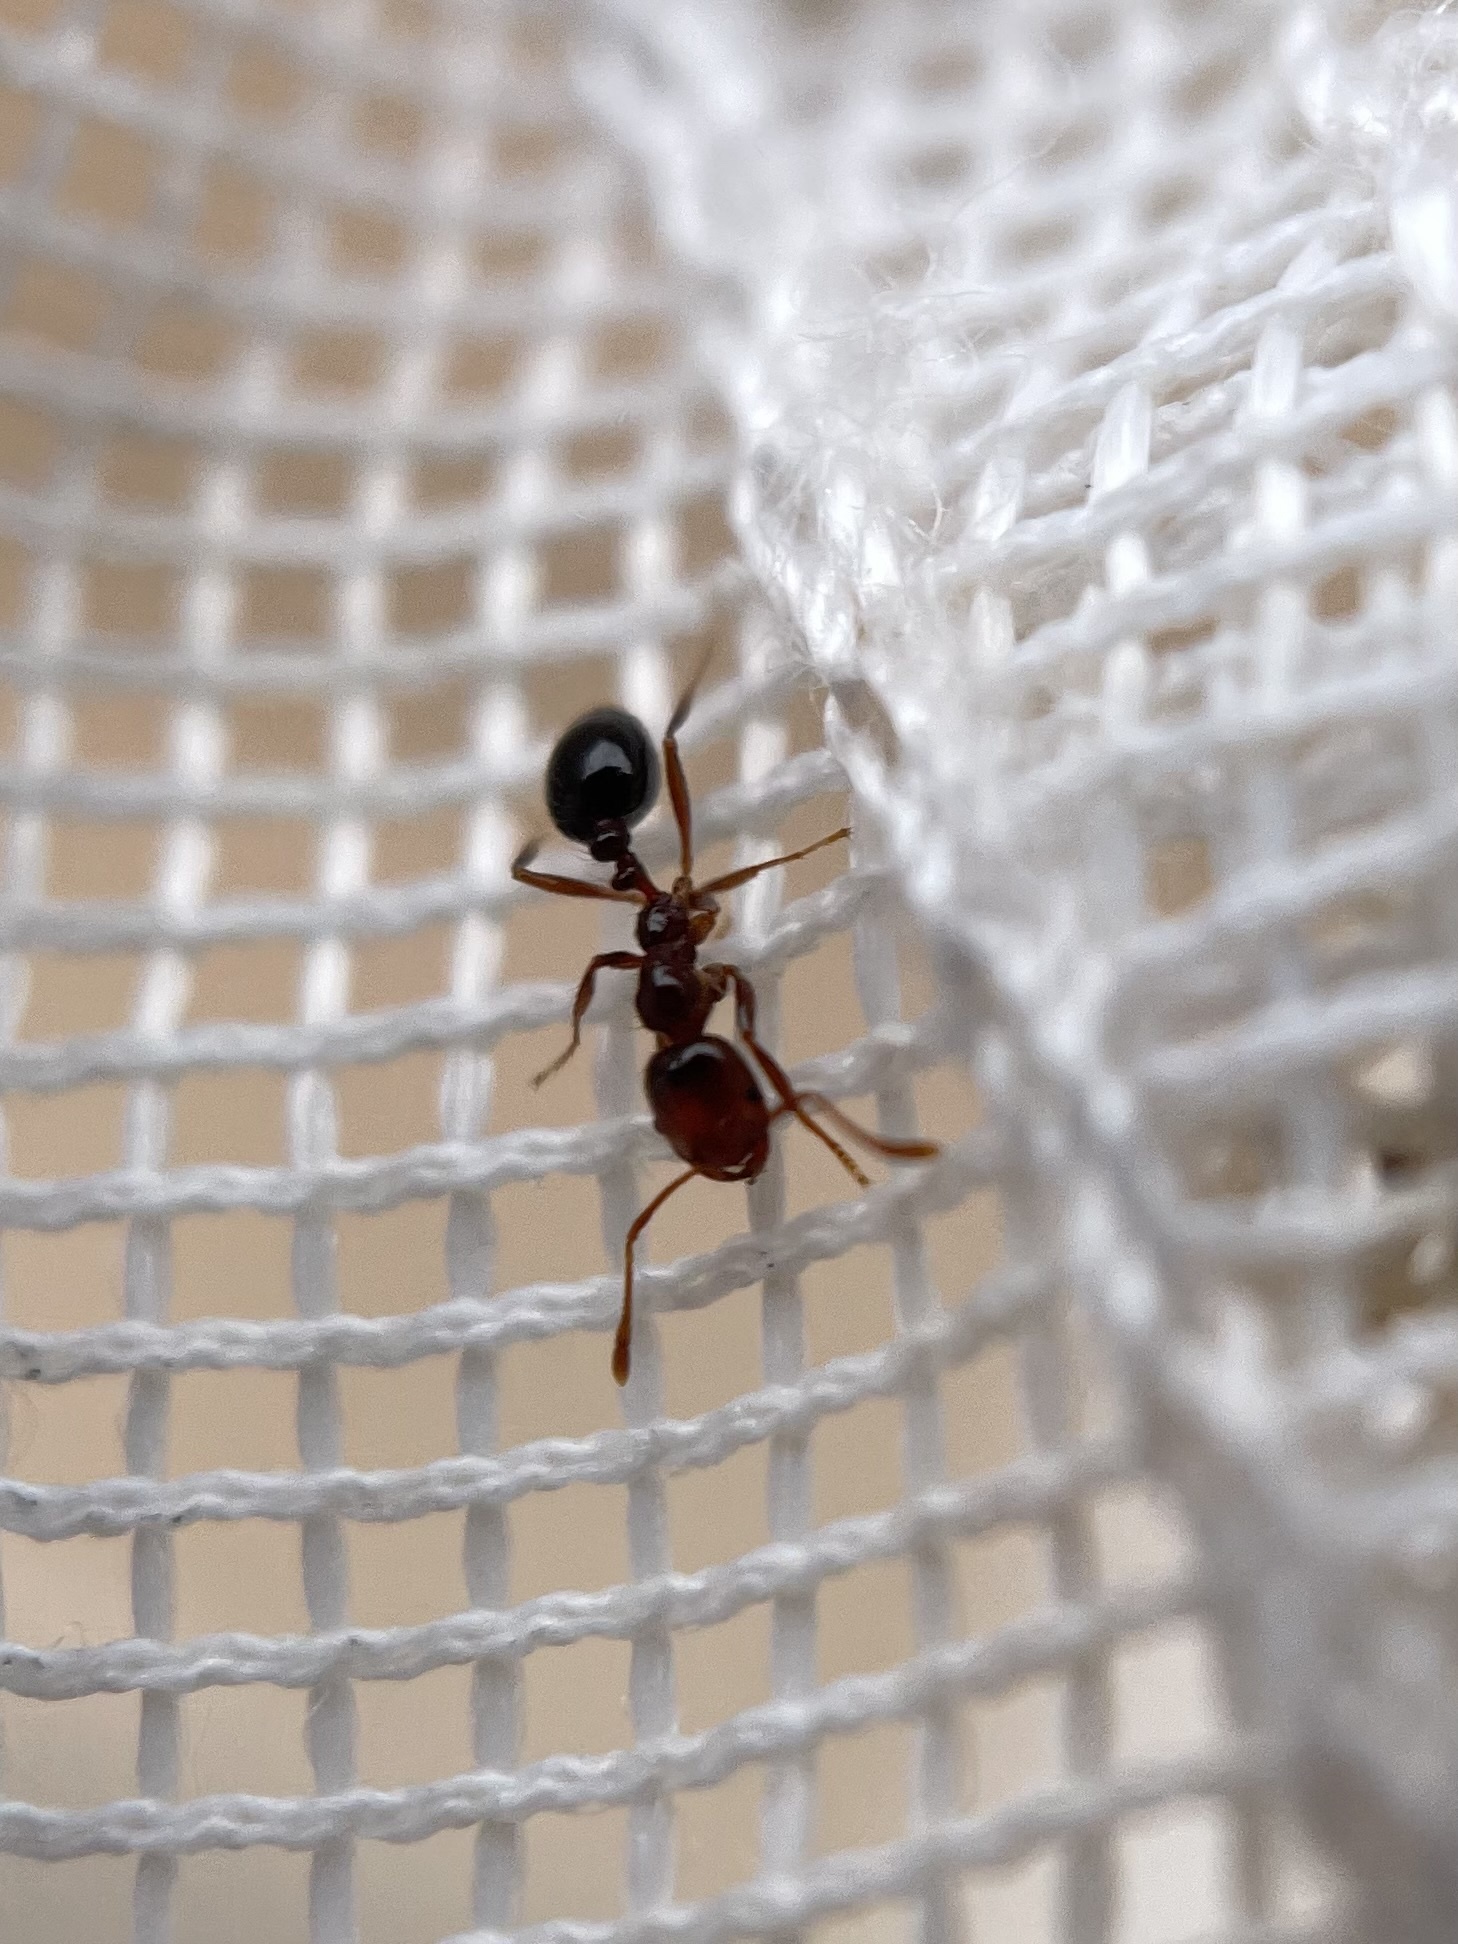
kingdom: Animalia
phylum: Arthropoda
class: Insecta
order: Hymenoptera
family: Formicidae
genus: Solenopsis
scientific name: Solenopsis invicta
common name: Red imported fire ant
